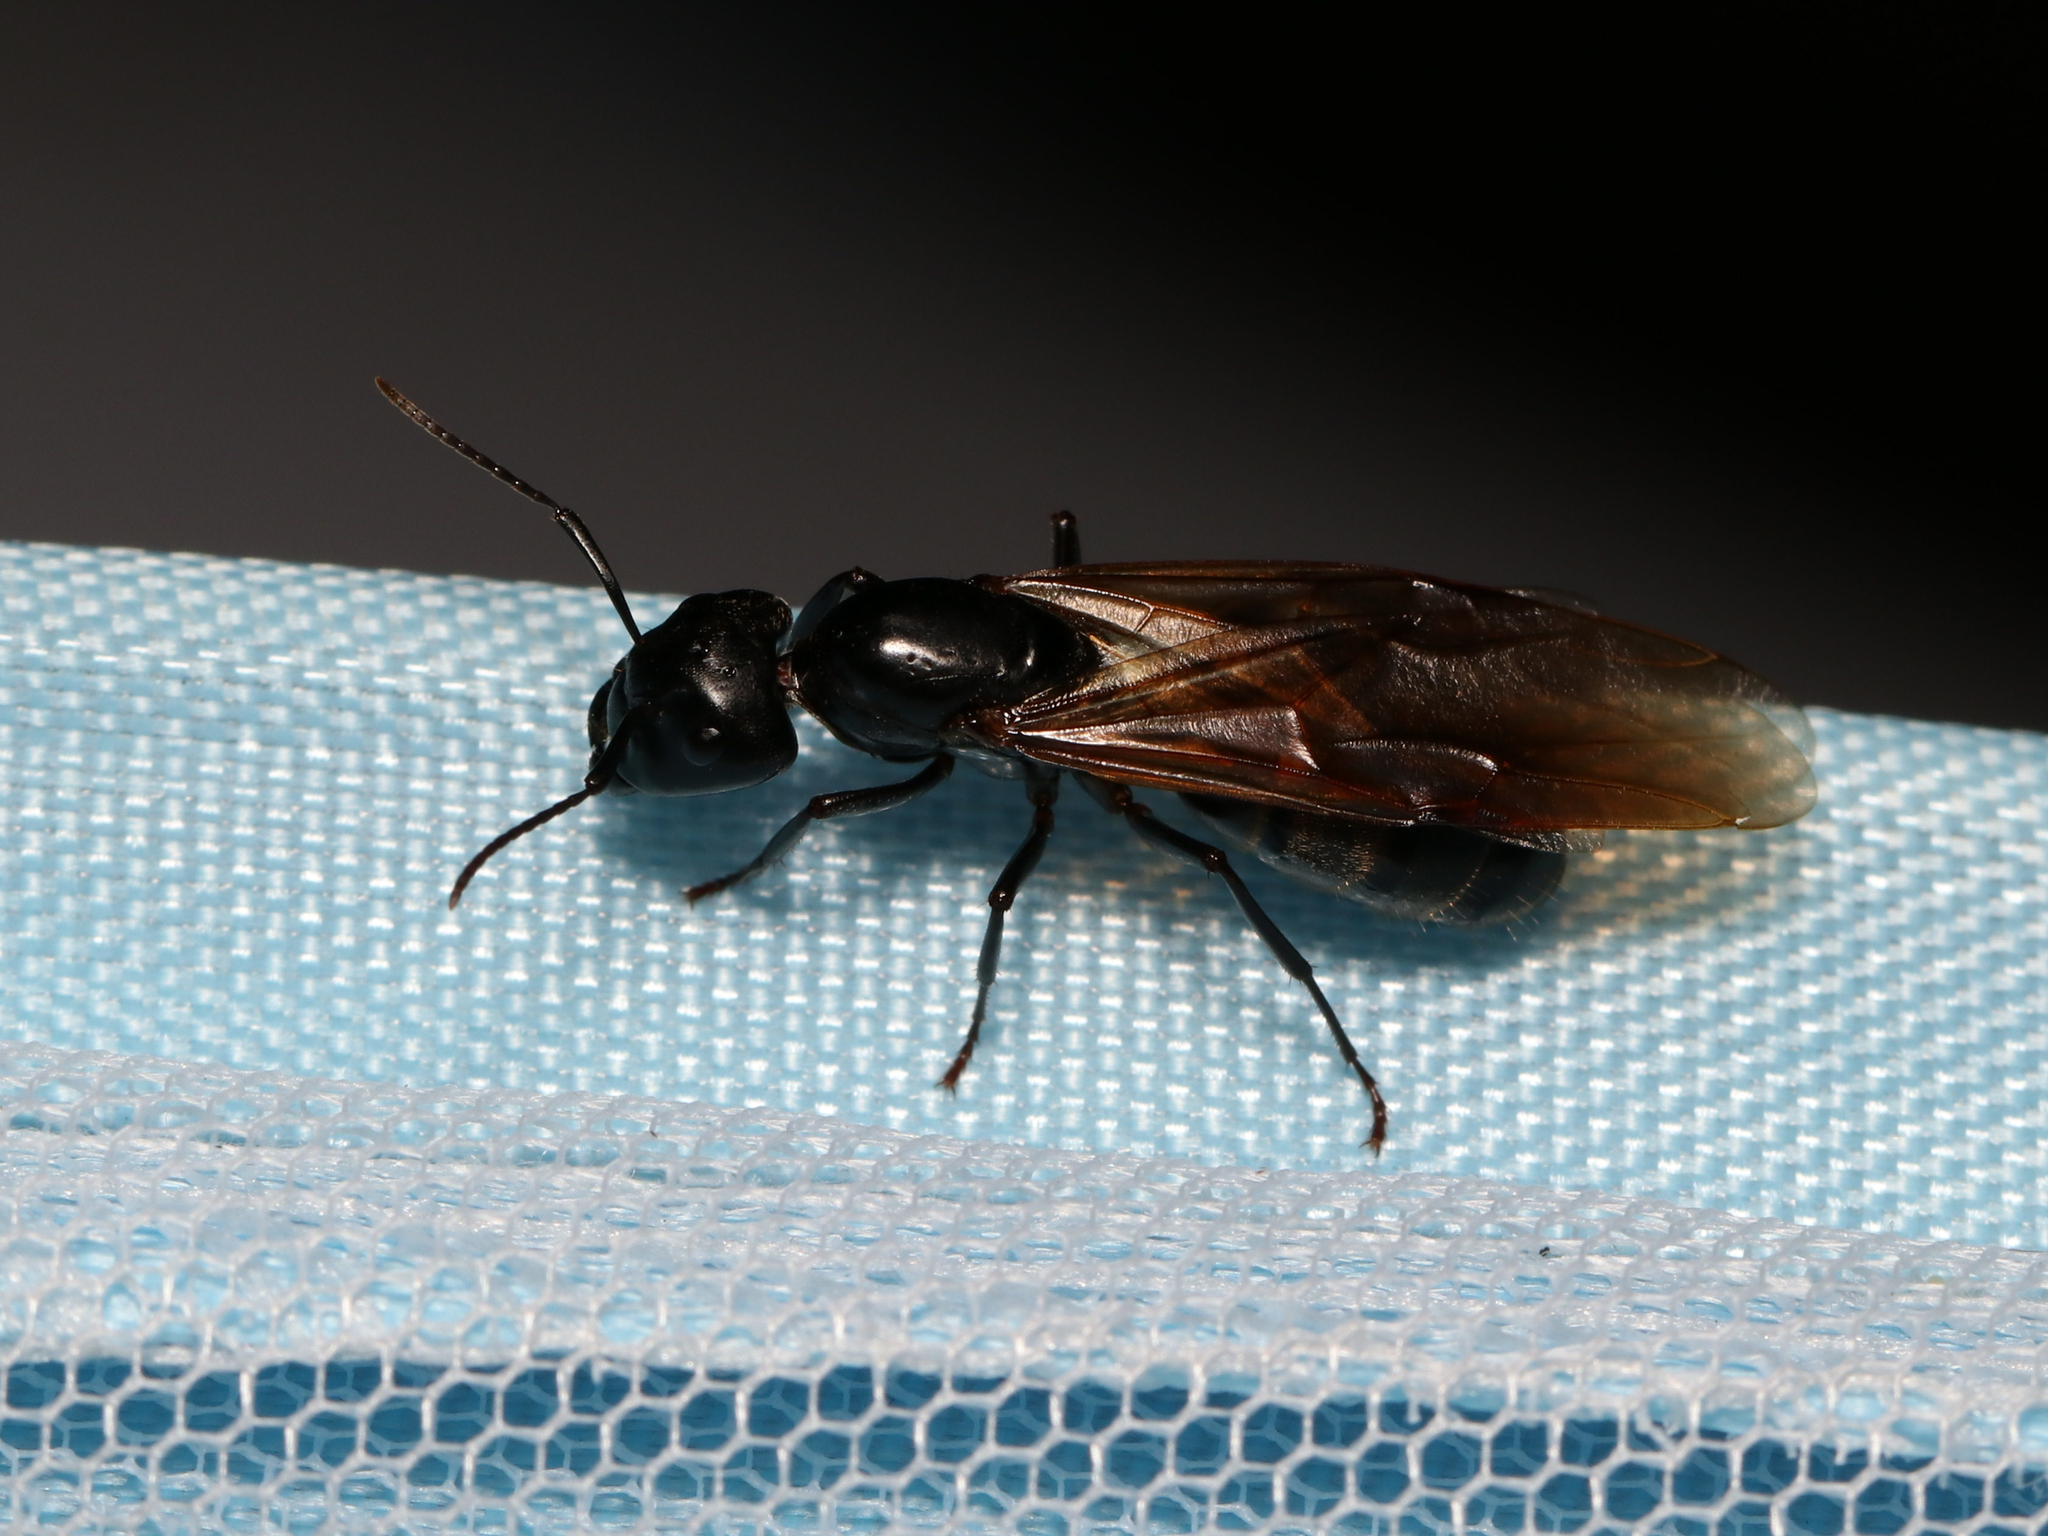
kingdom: Animalia
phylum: Arthropoda
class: Insecta
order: Hymenoptera
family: Formicidae
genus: Camponotus
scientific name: Camponotus pennsylvanicus
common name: Black carpenter ant
